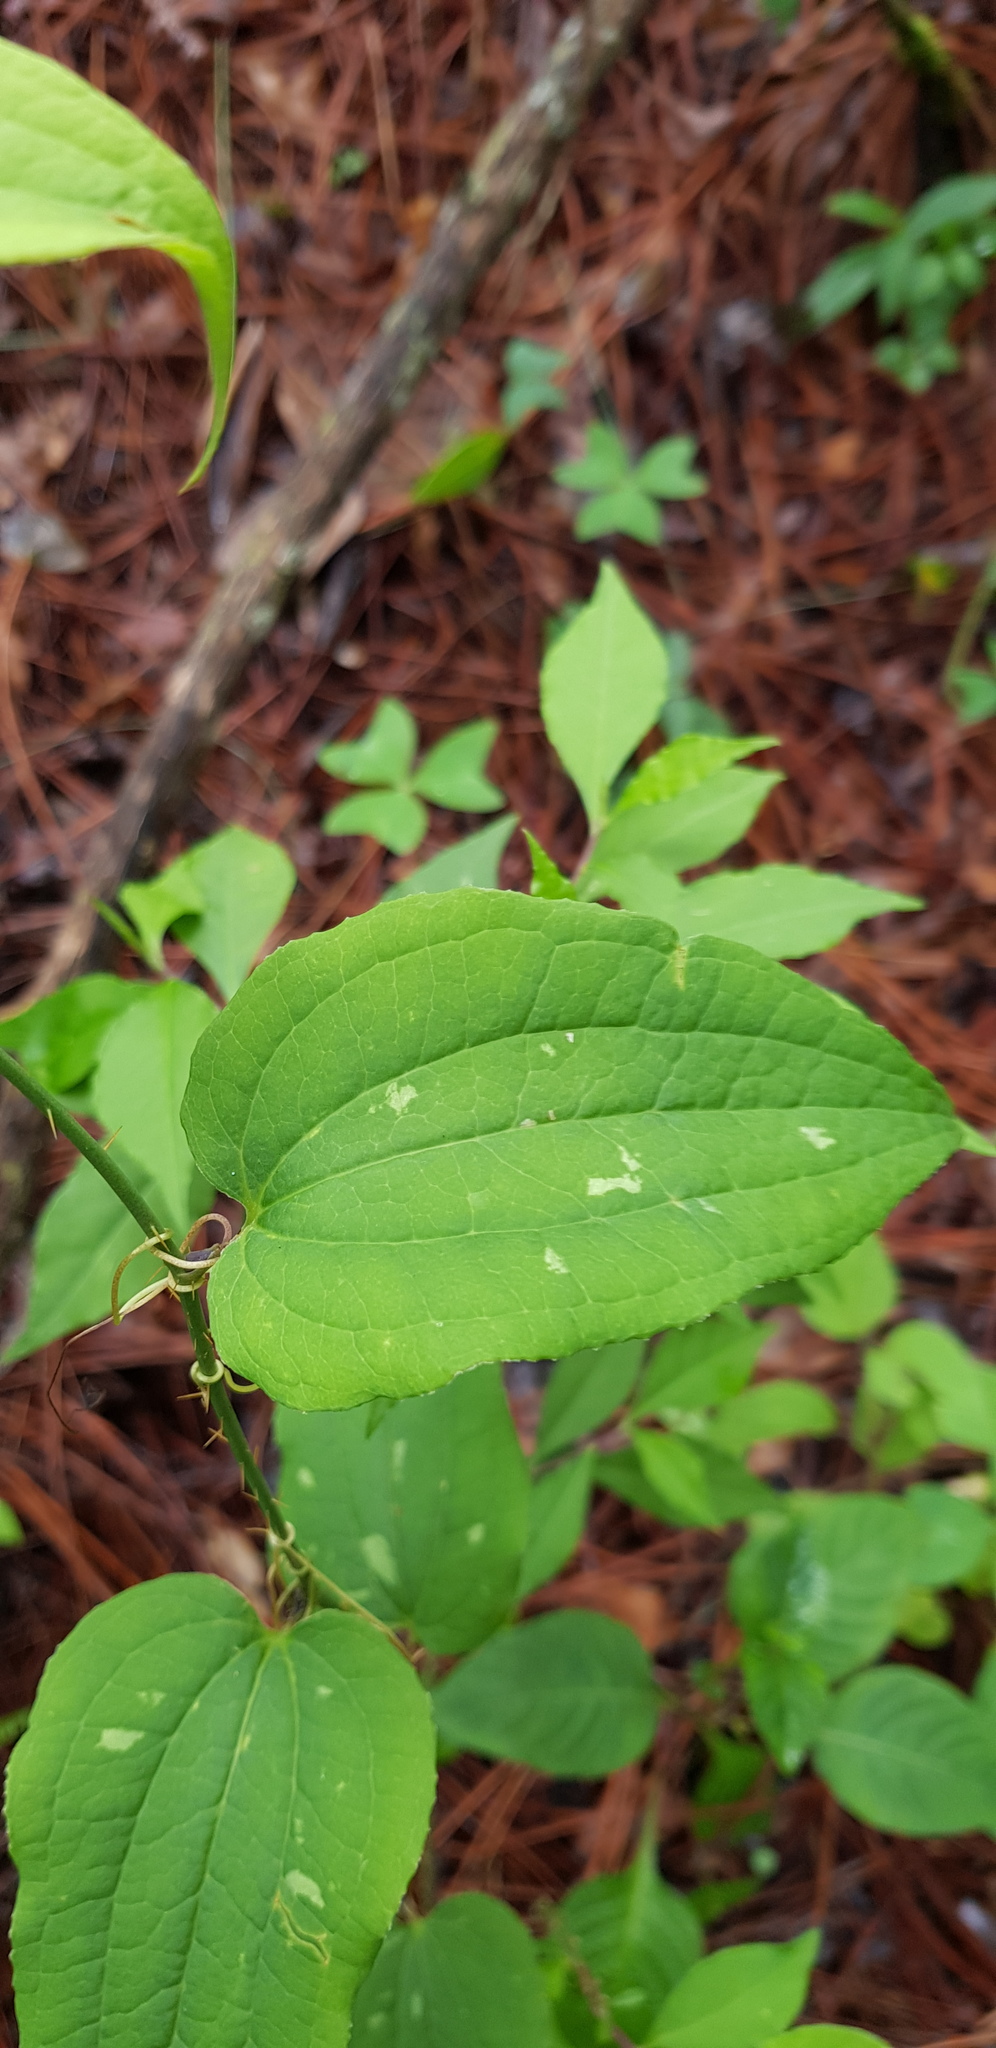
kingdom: Plantae
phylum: Tracheophyta
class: Liliopsida
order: Liliales
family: Smilacaceae
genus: Smilax
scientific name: Smilax moranensis
